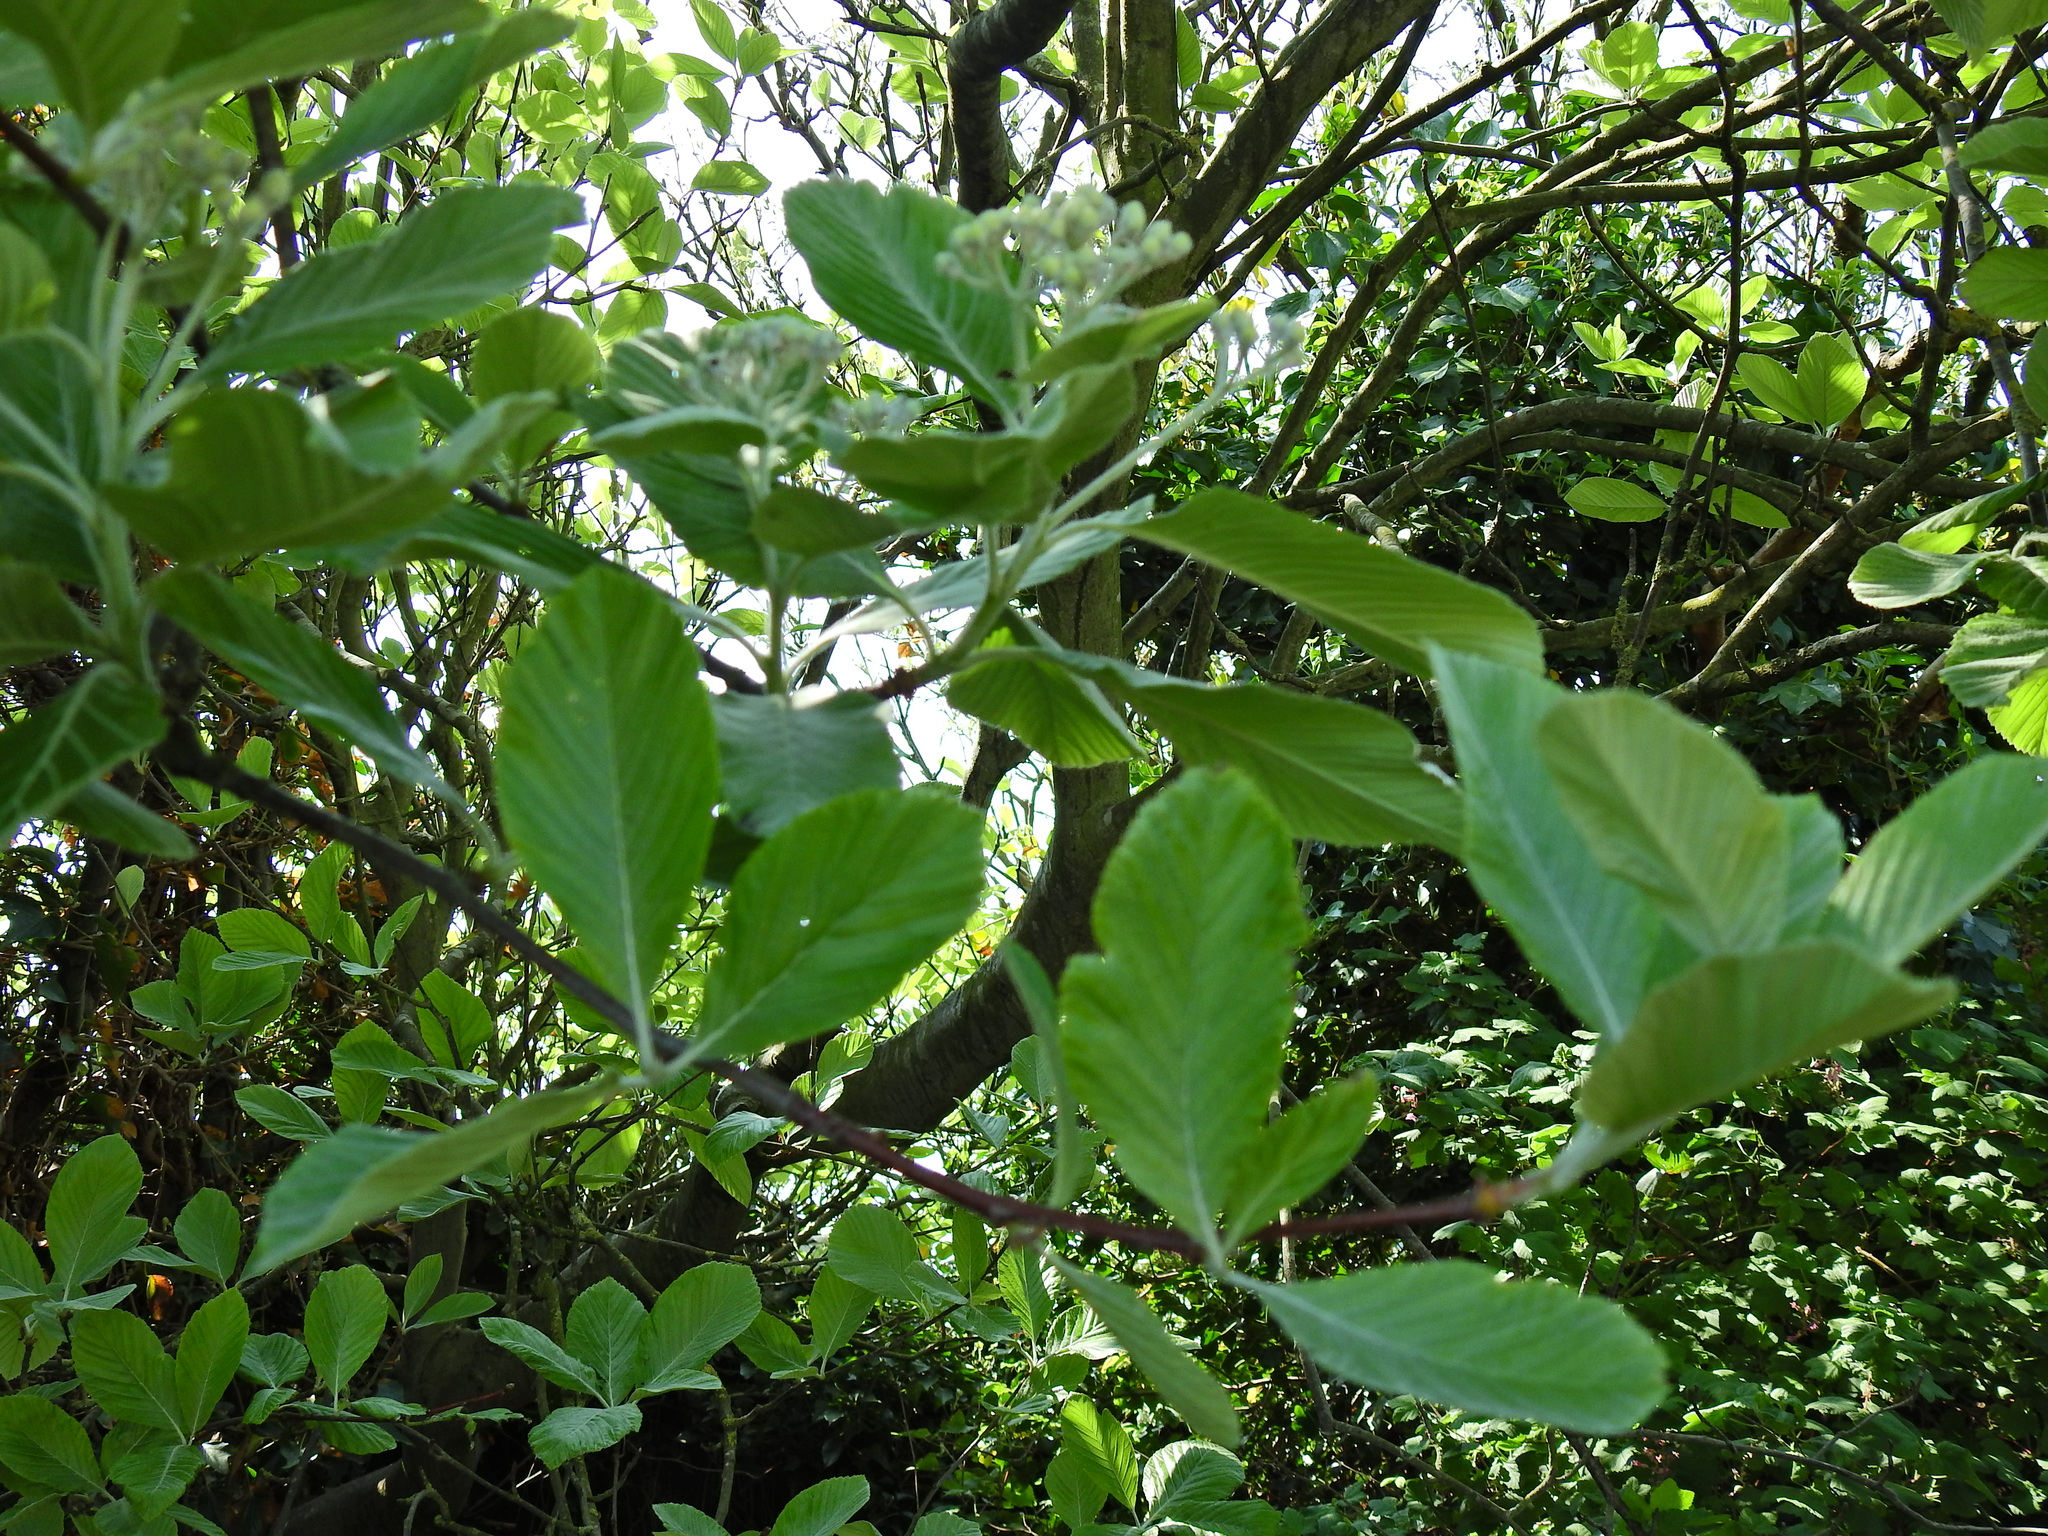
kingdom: Plantae
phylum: Tracheophyta
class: Magnoliopsida
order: Rosales
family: Rosaceae
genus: Aria
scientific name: Aria edulis
